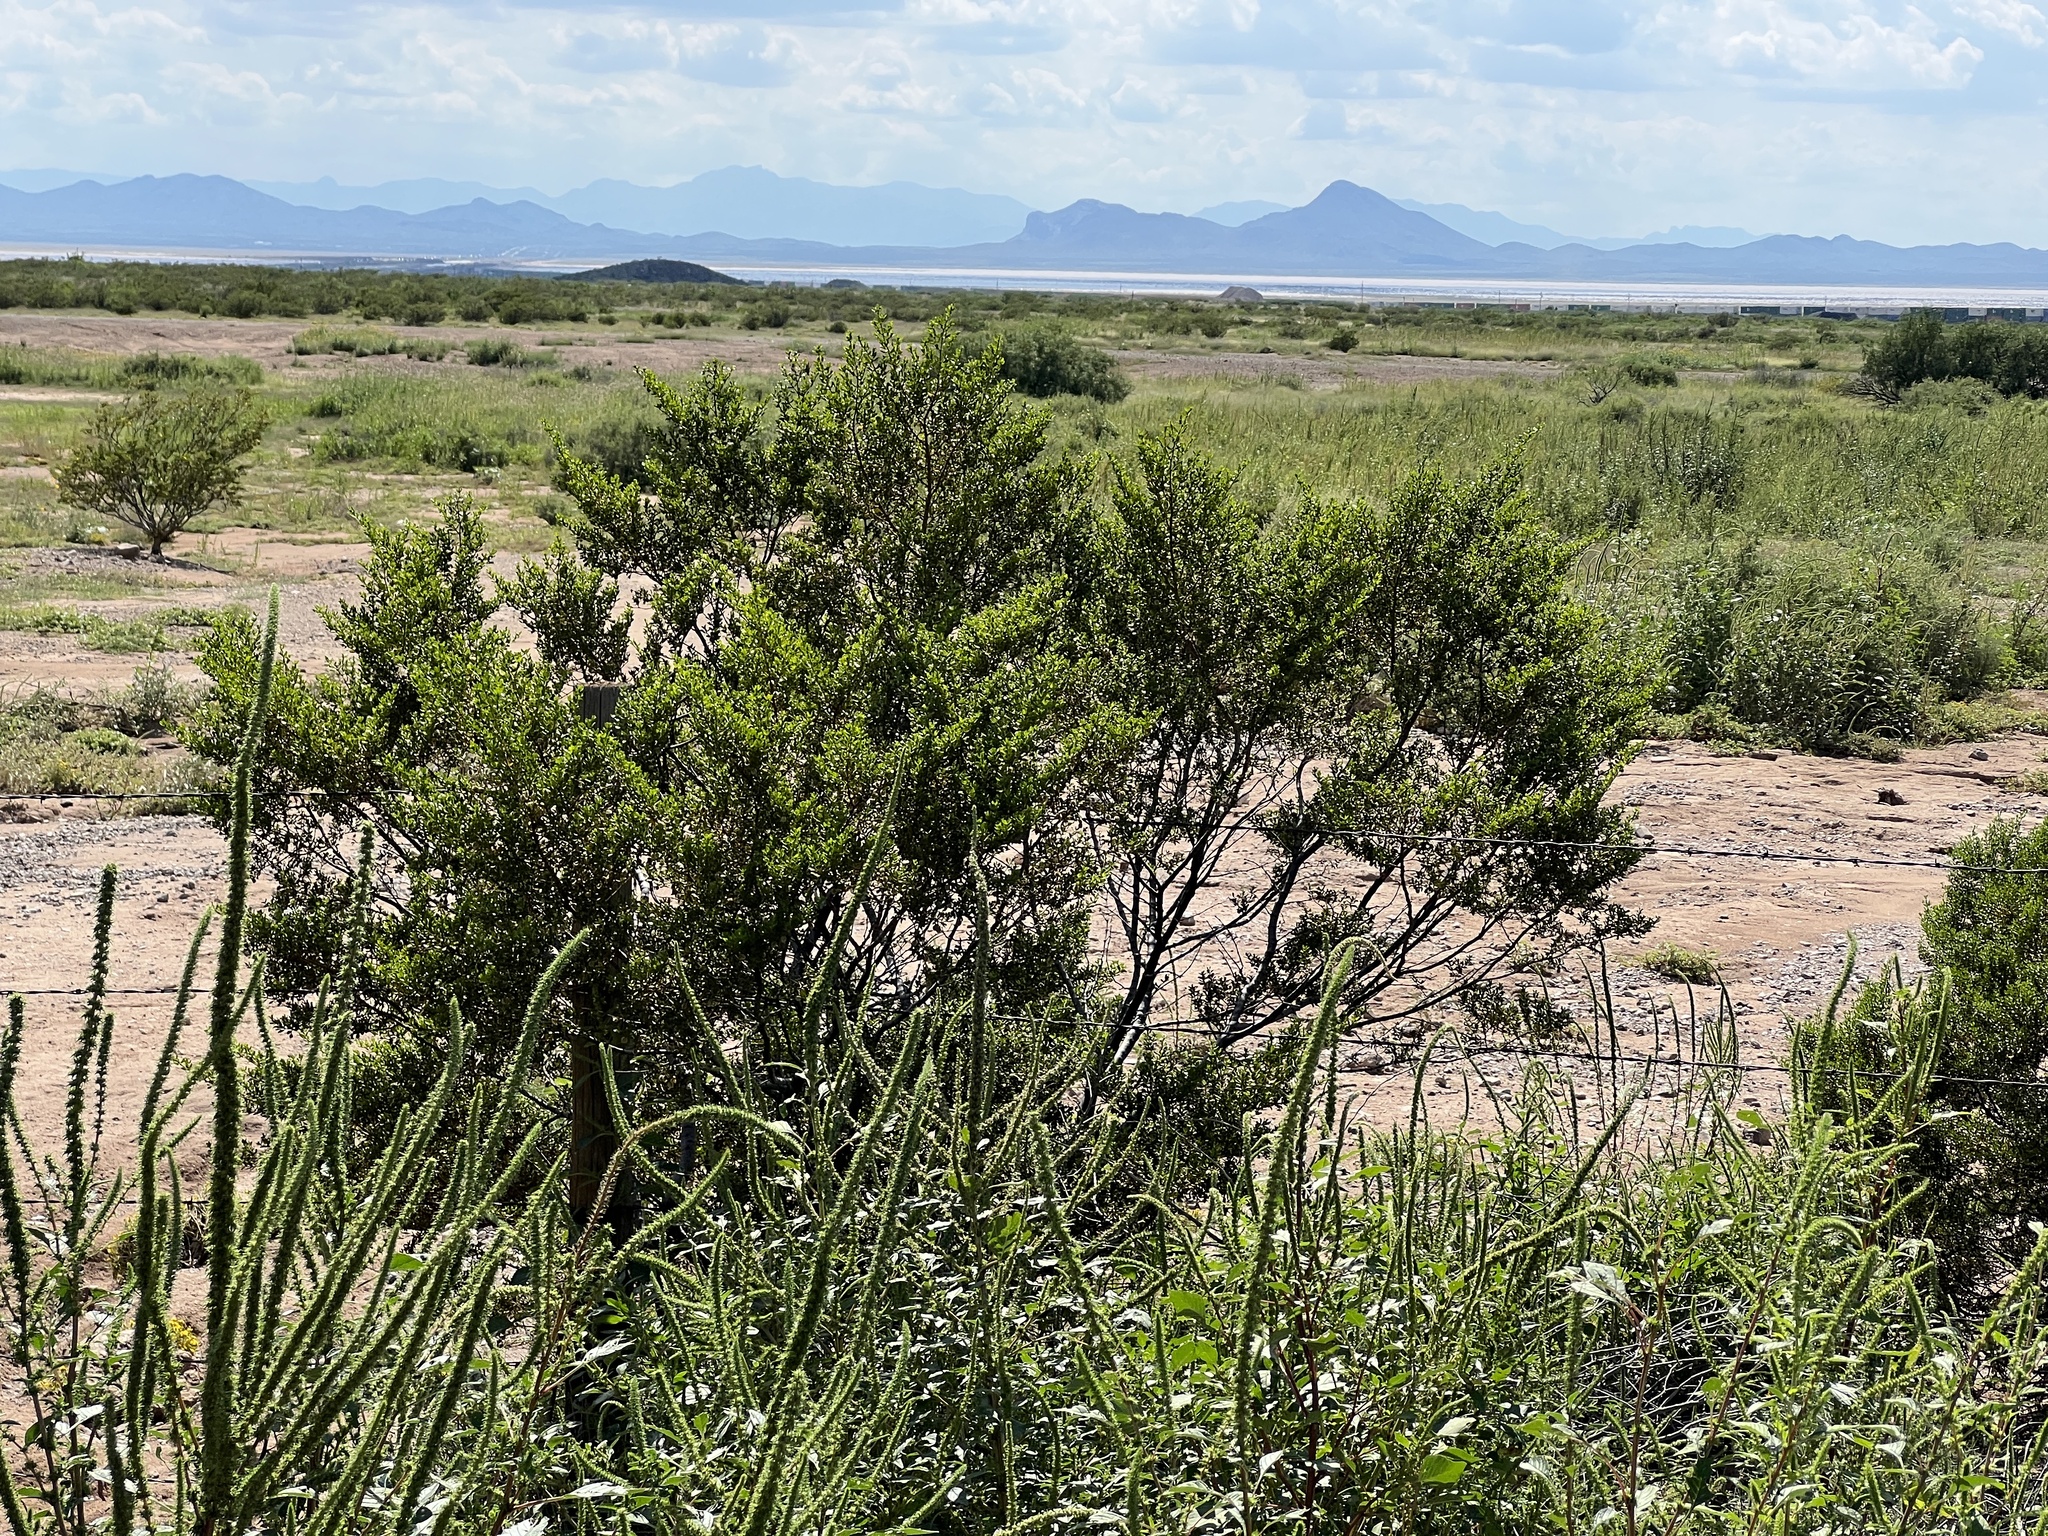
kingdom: Plantae
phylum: Tracheophyta
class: Magnoliopsida
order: Zygophyllales
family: Zygophyllaceae
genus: Larrea
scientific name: Larrea tridentata
